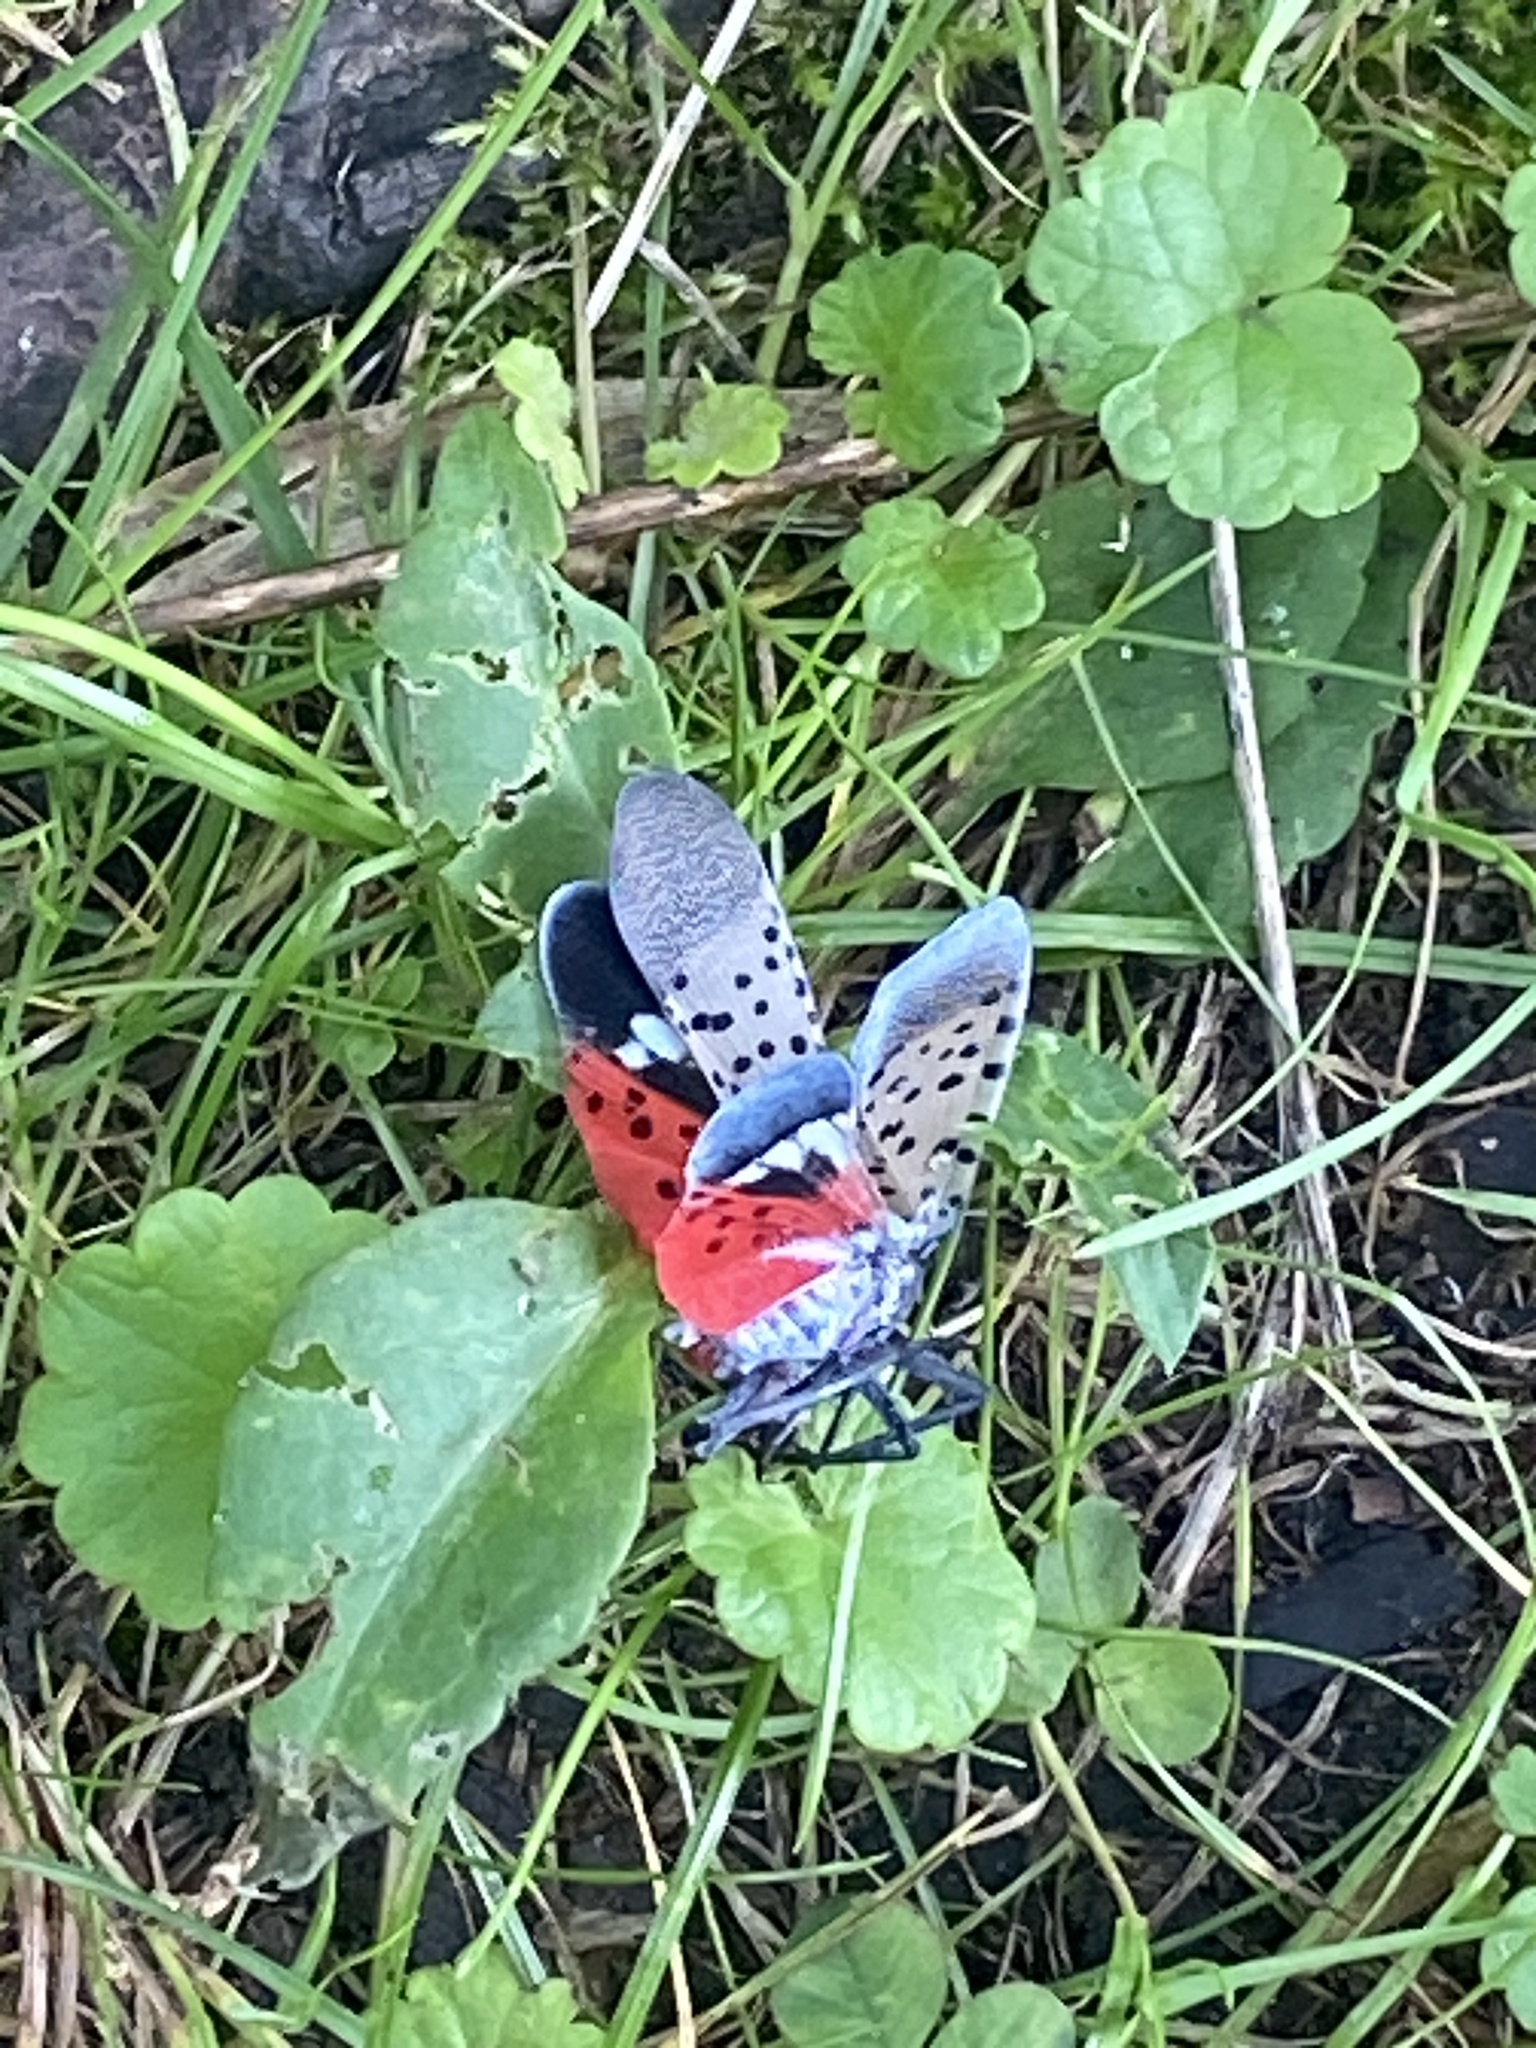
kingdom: Animalia
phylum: Arthropoda
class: Insecta
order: Hemiptera
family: Fulgoridae
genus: Lycorma
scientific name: Lycorma delicatula
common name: Spotted lanternfly
